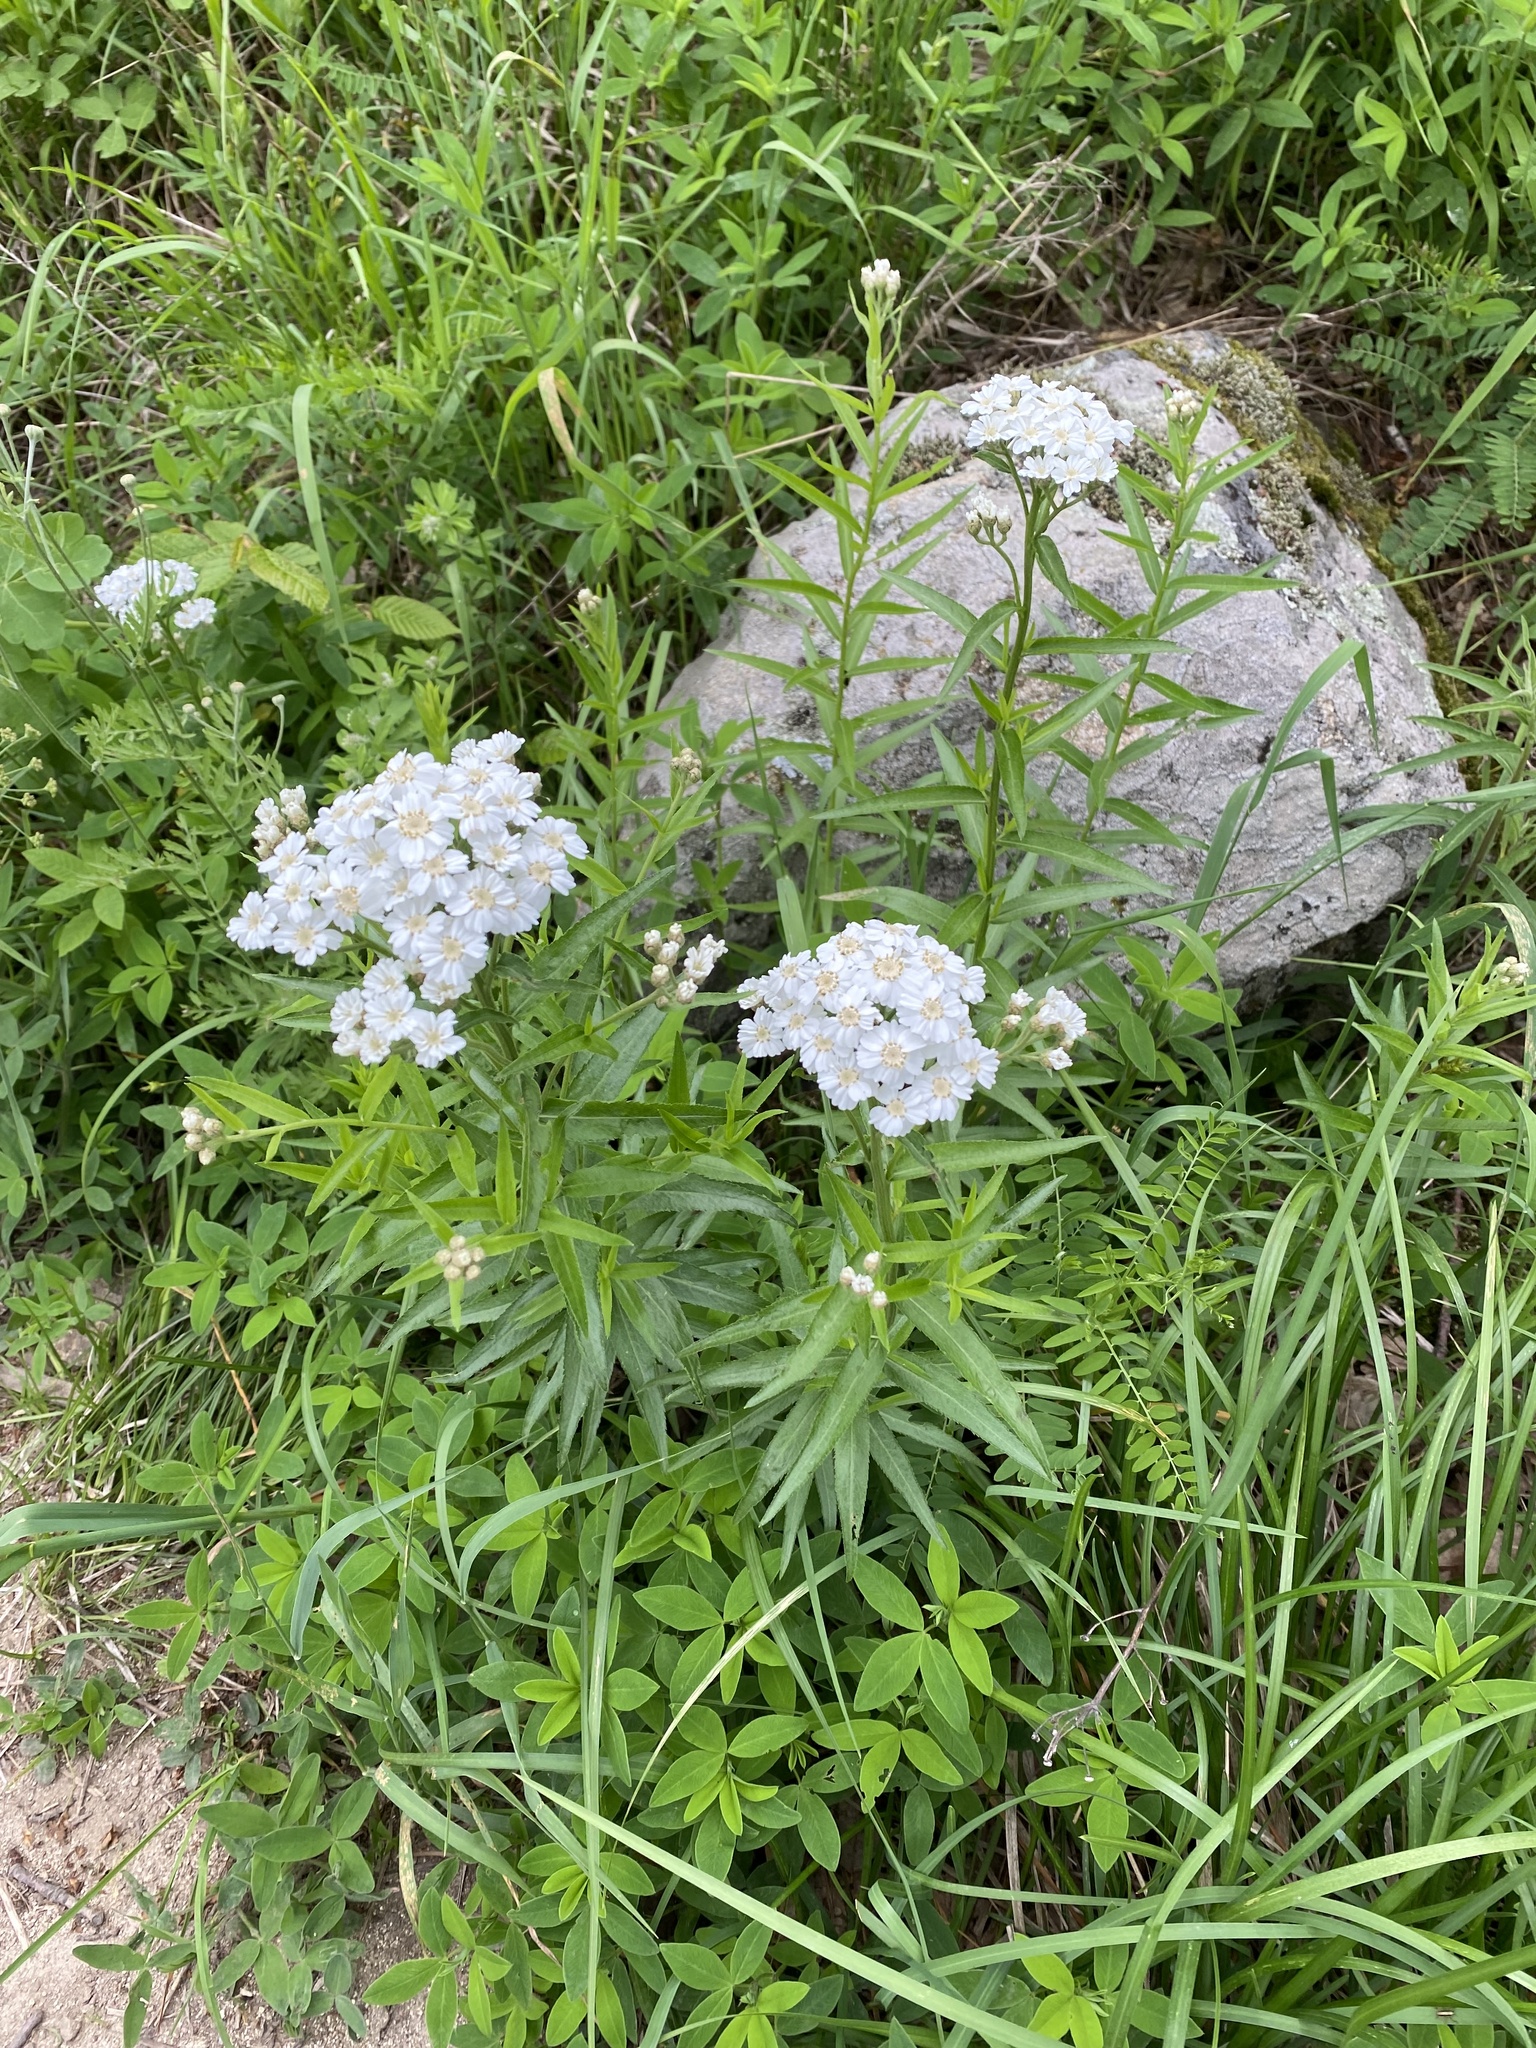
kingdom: Plantae
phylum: Tracheophyta
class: Magnoliopsida
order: Asterales
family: Asteraceae
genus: Achillea
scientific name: Achillea biserrata
